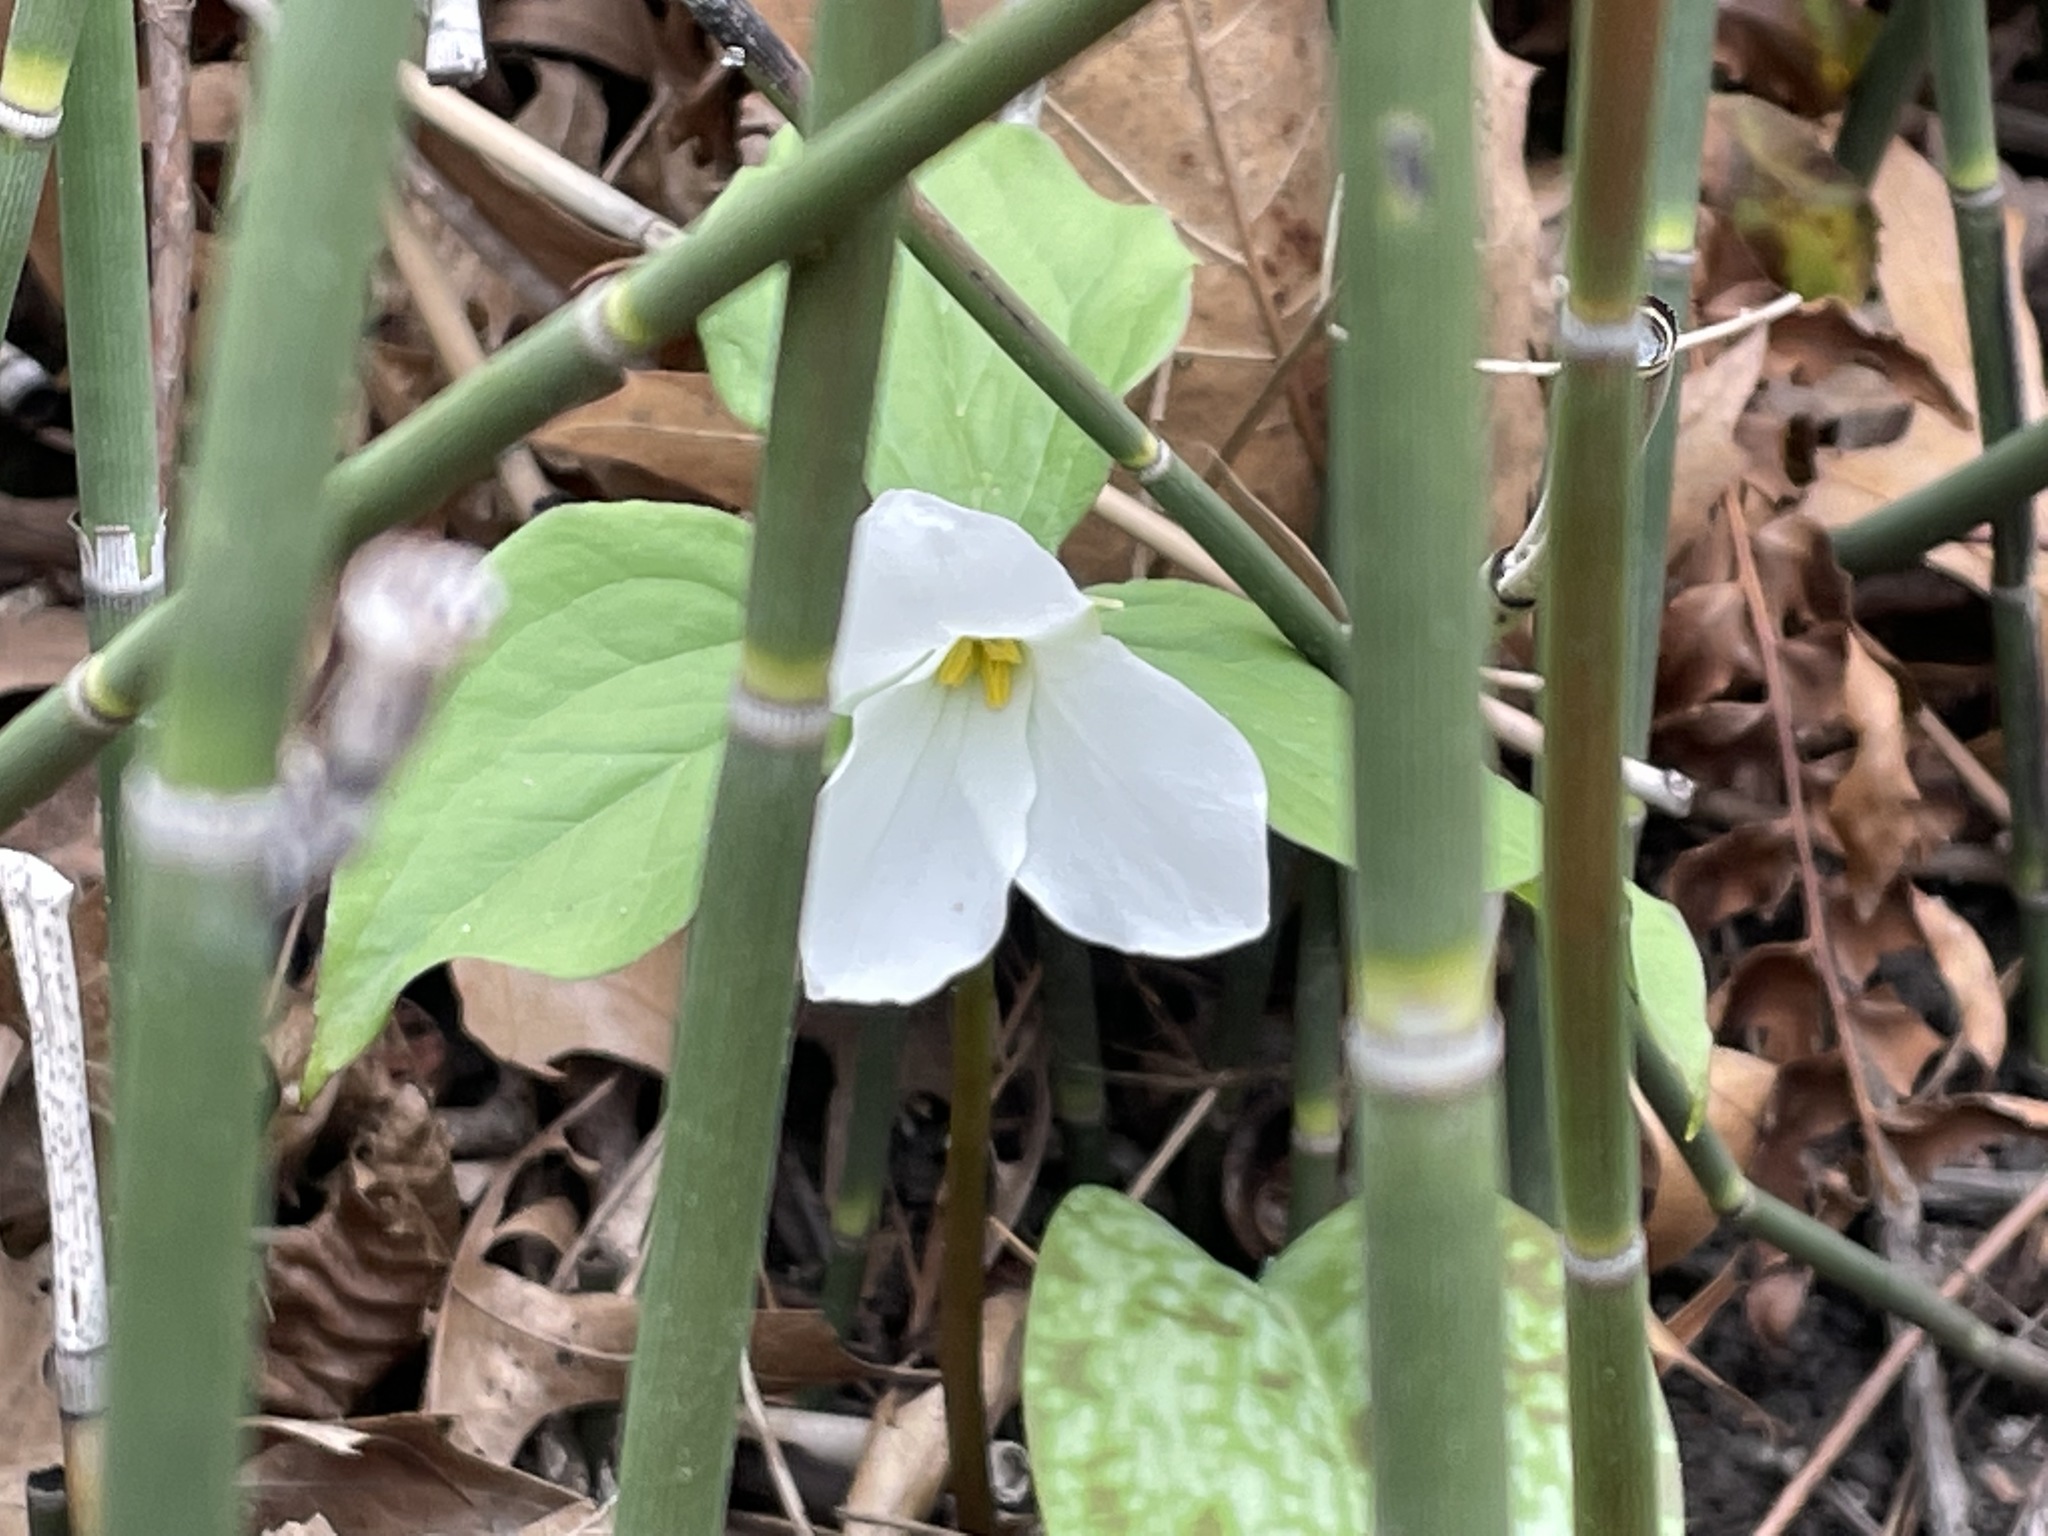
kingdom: Plantae
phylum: Tracheophyta
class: Liliopsida
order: Liliales
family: Melanthiaceae
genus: Trillium
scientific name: Trillium grandiflorum
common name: Great white trillium
